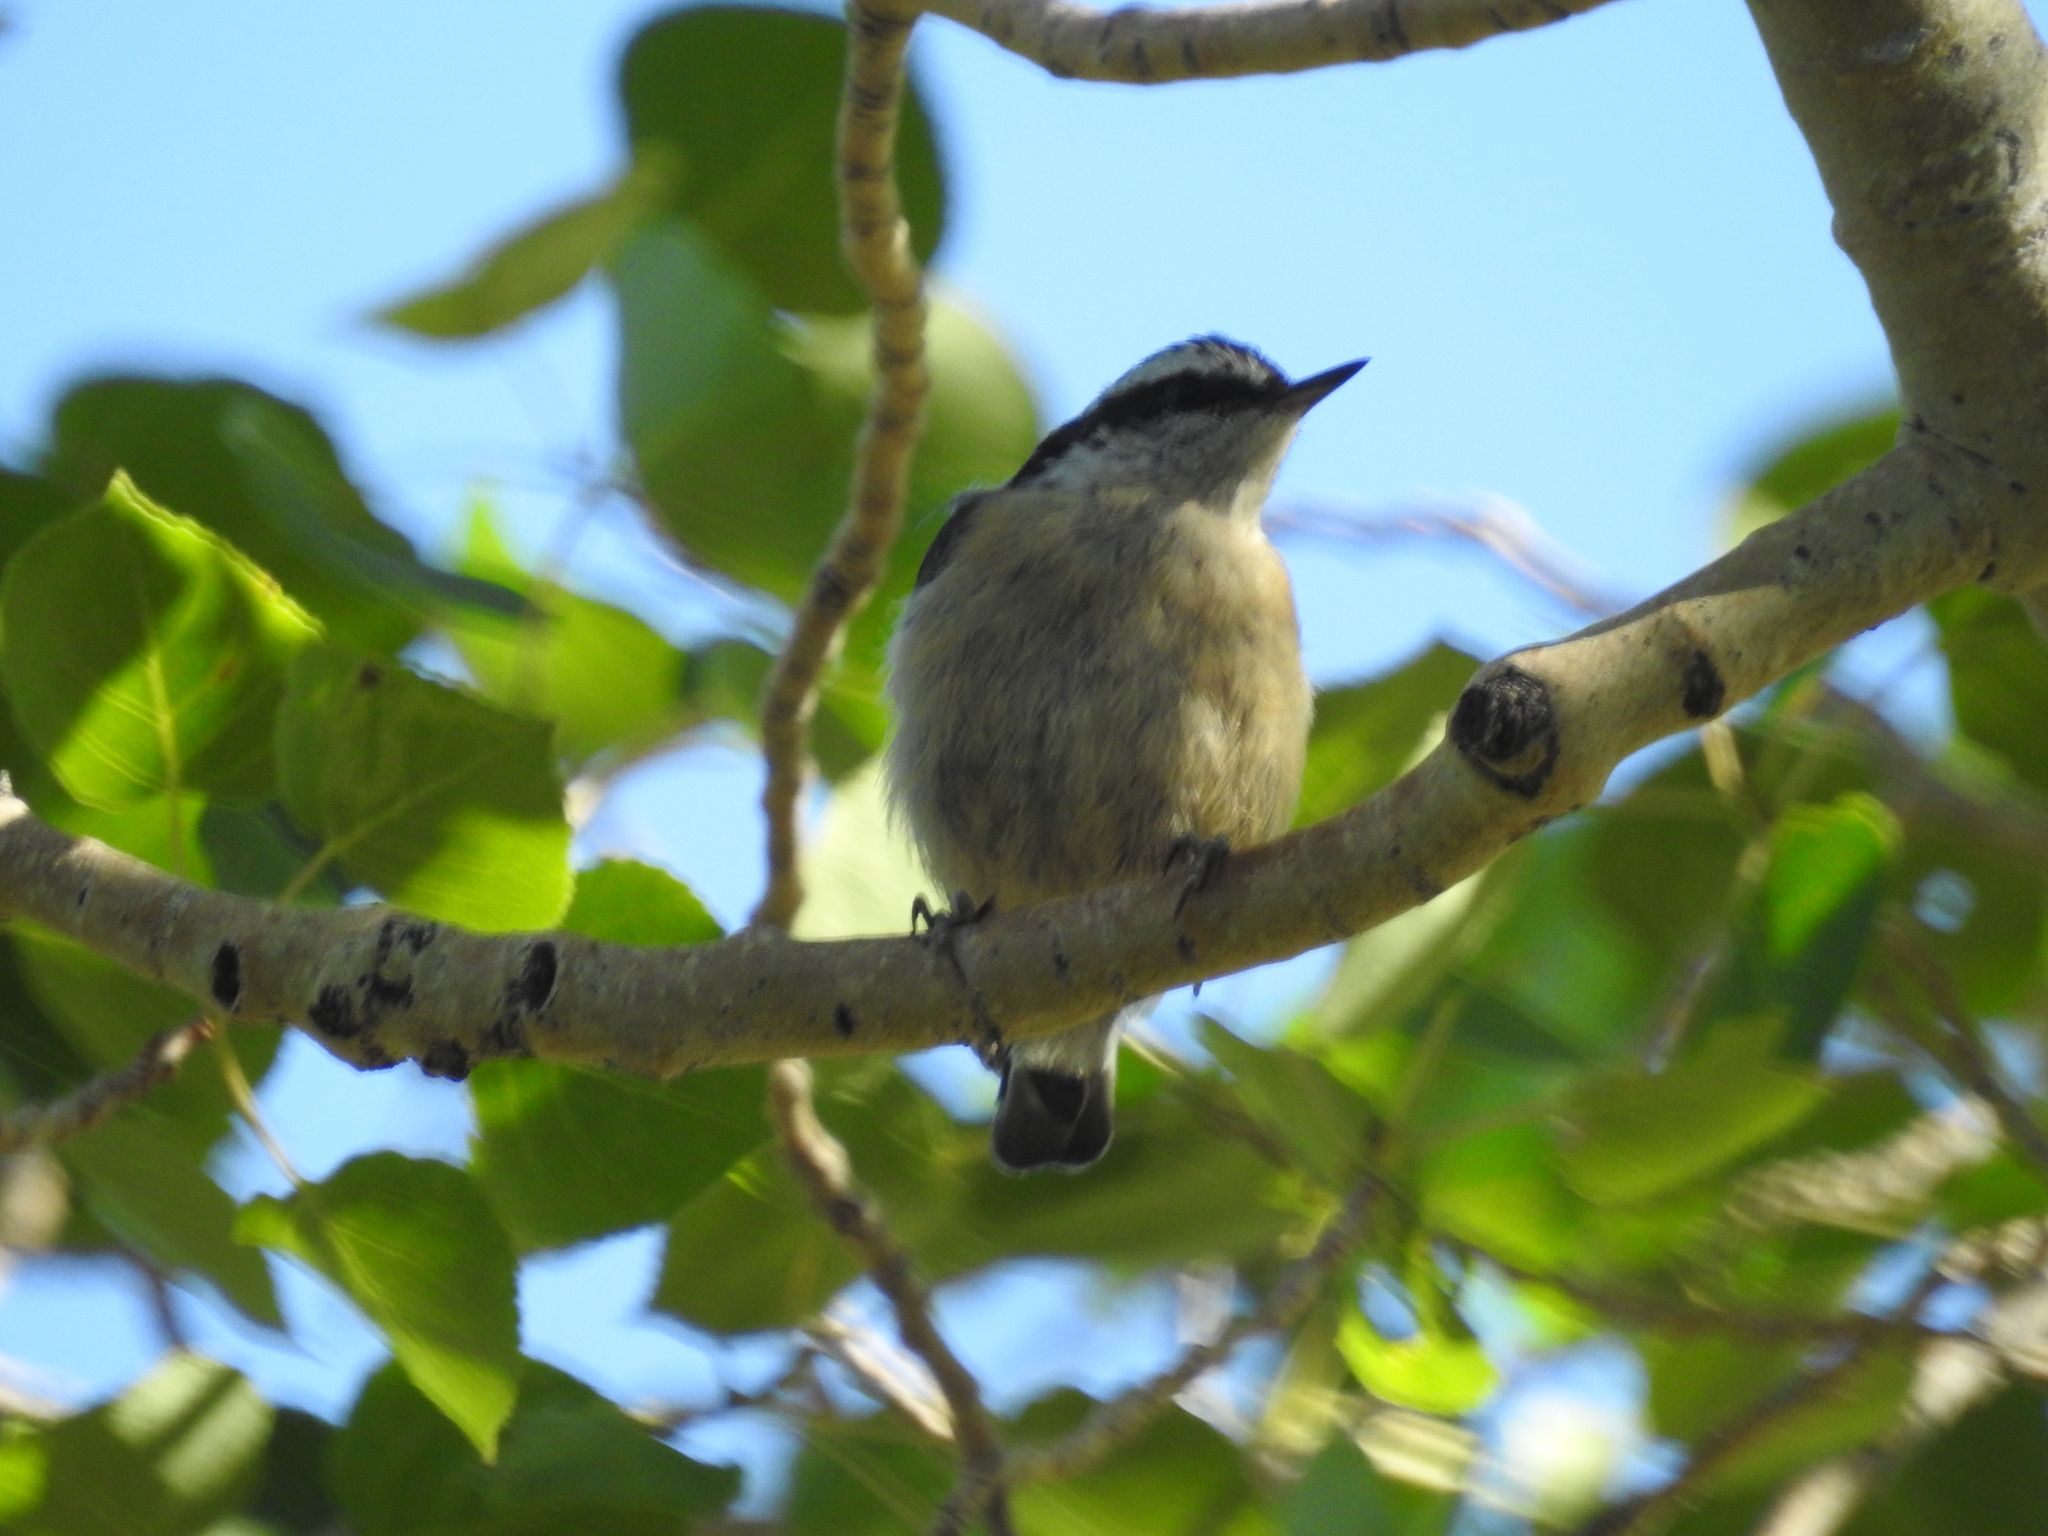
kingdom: Animalia
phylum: Chordata
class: Aves
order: Passeriformes
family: Sittidae
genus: Sitta
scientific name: Sitta canadensis
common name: Red-breasted nuthatch
